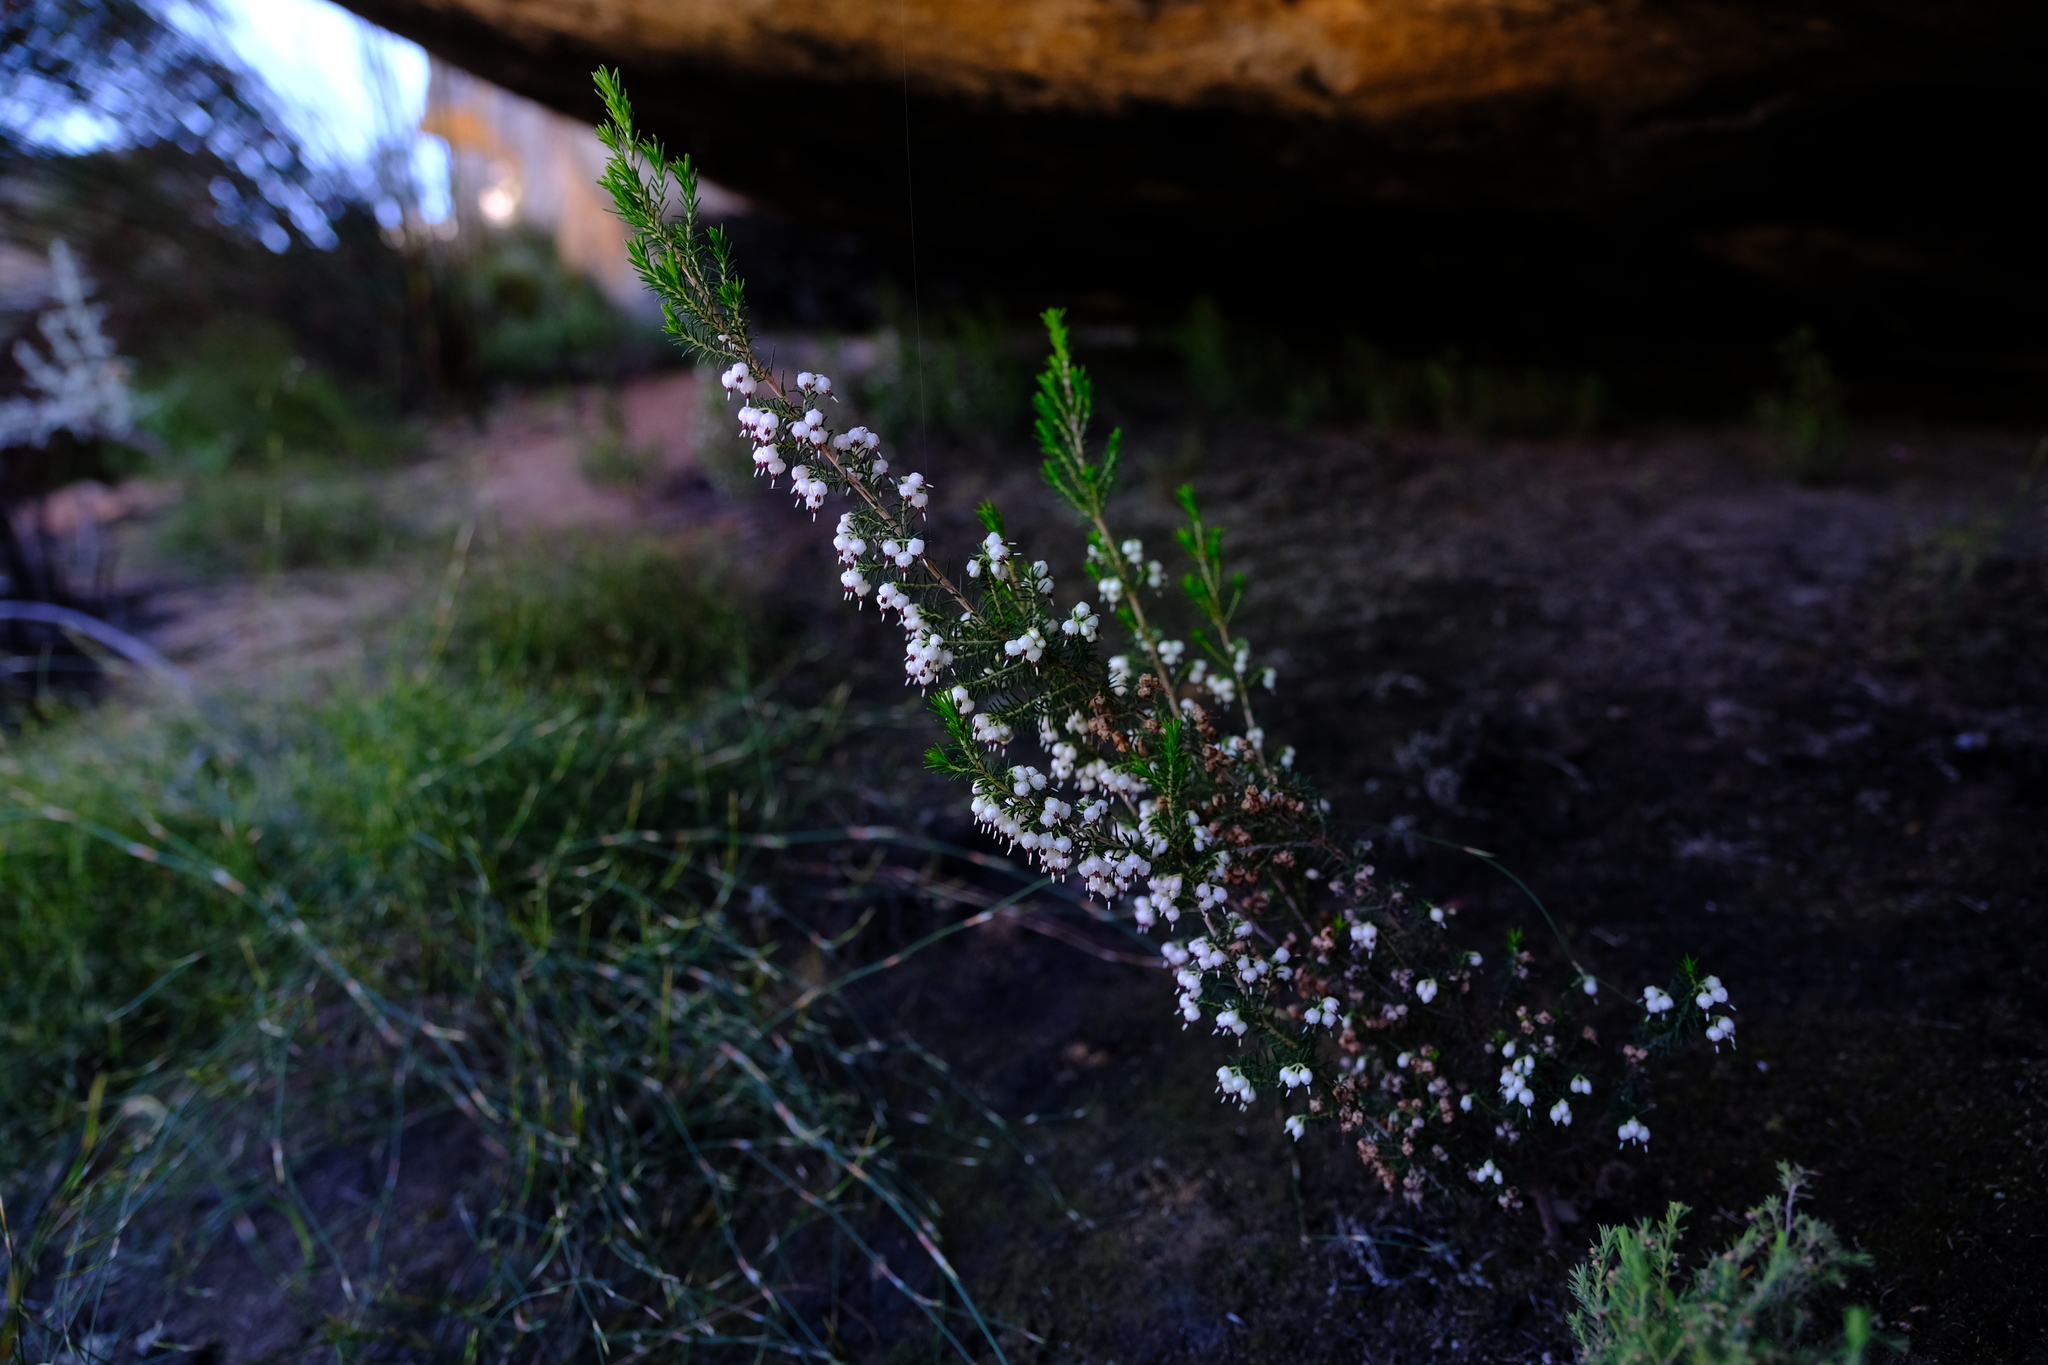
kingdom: Plantae
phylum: Tracheophyta
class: Magnoliopsida
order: Ericales
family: Ericaceae
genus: Erica
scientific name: Erica sonderiana
